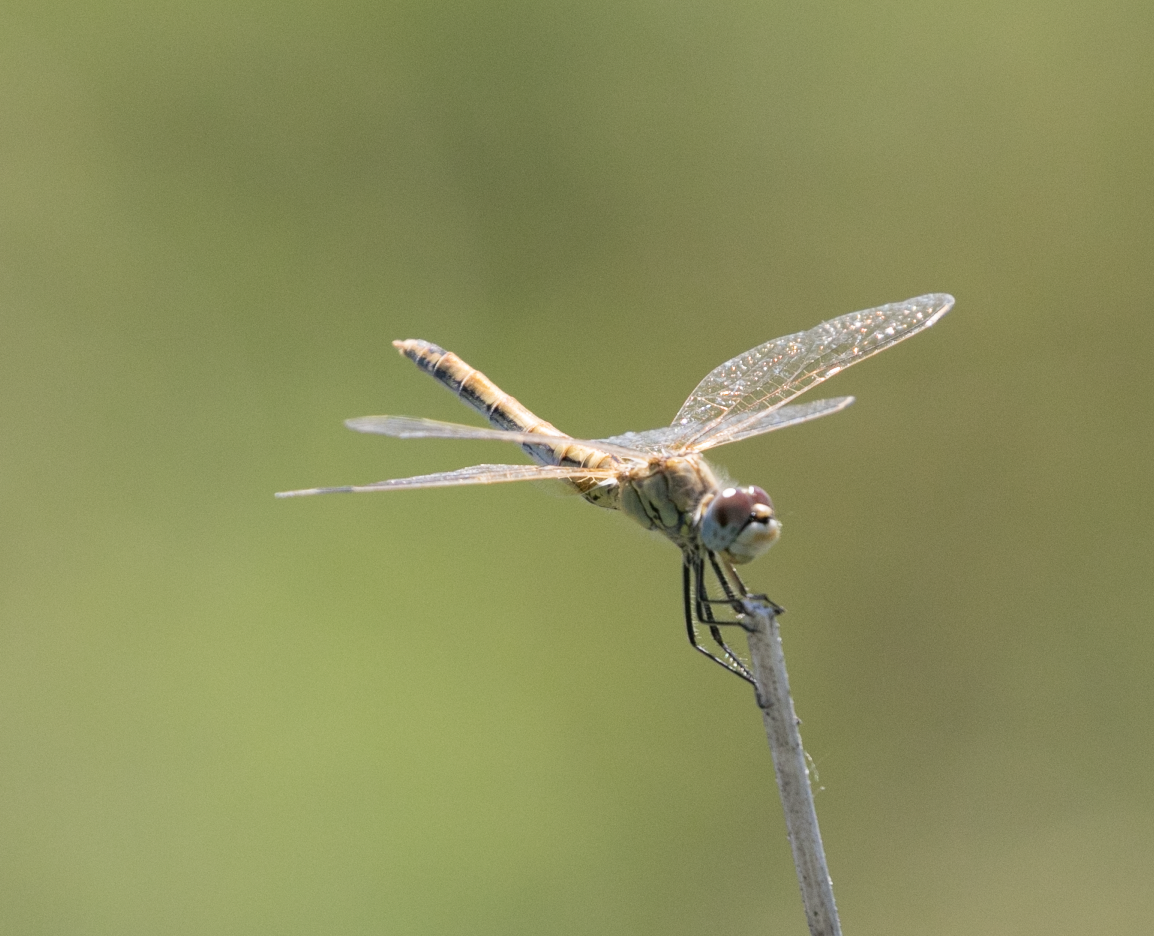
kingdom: Animalia
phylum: Arthropoda
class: Insecta
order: Odonata
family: Libellulidae
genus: Sympetrum
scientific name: Sympetrum fonscolombii
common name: Red-veined darter
